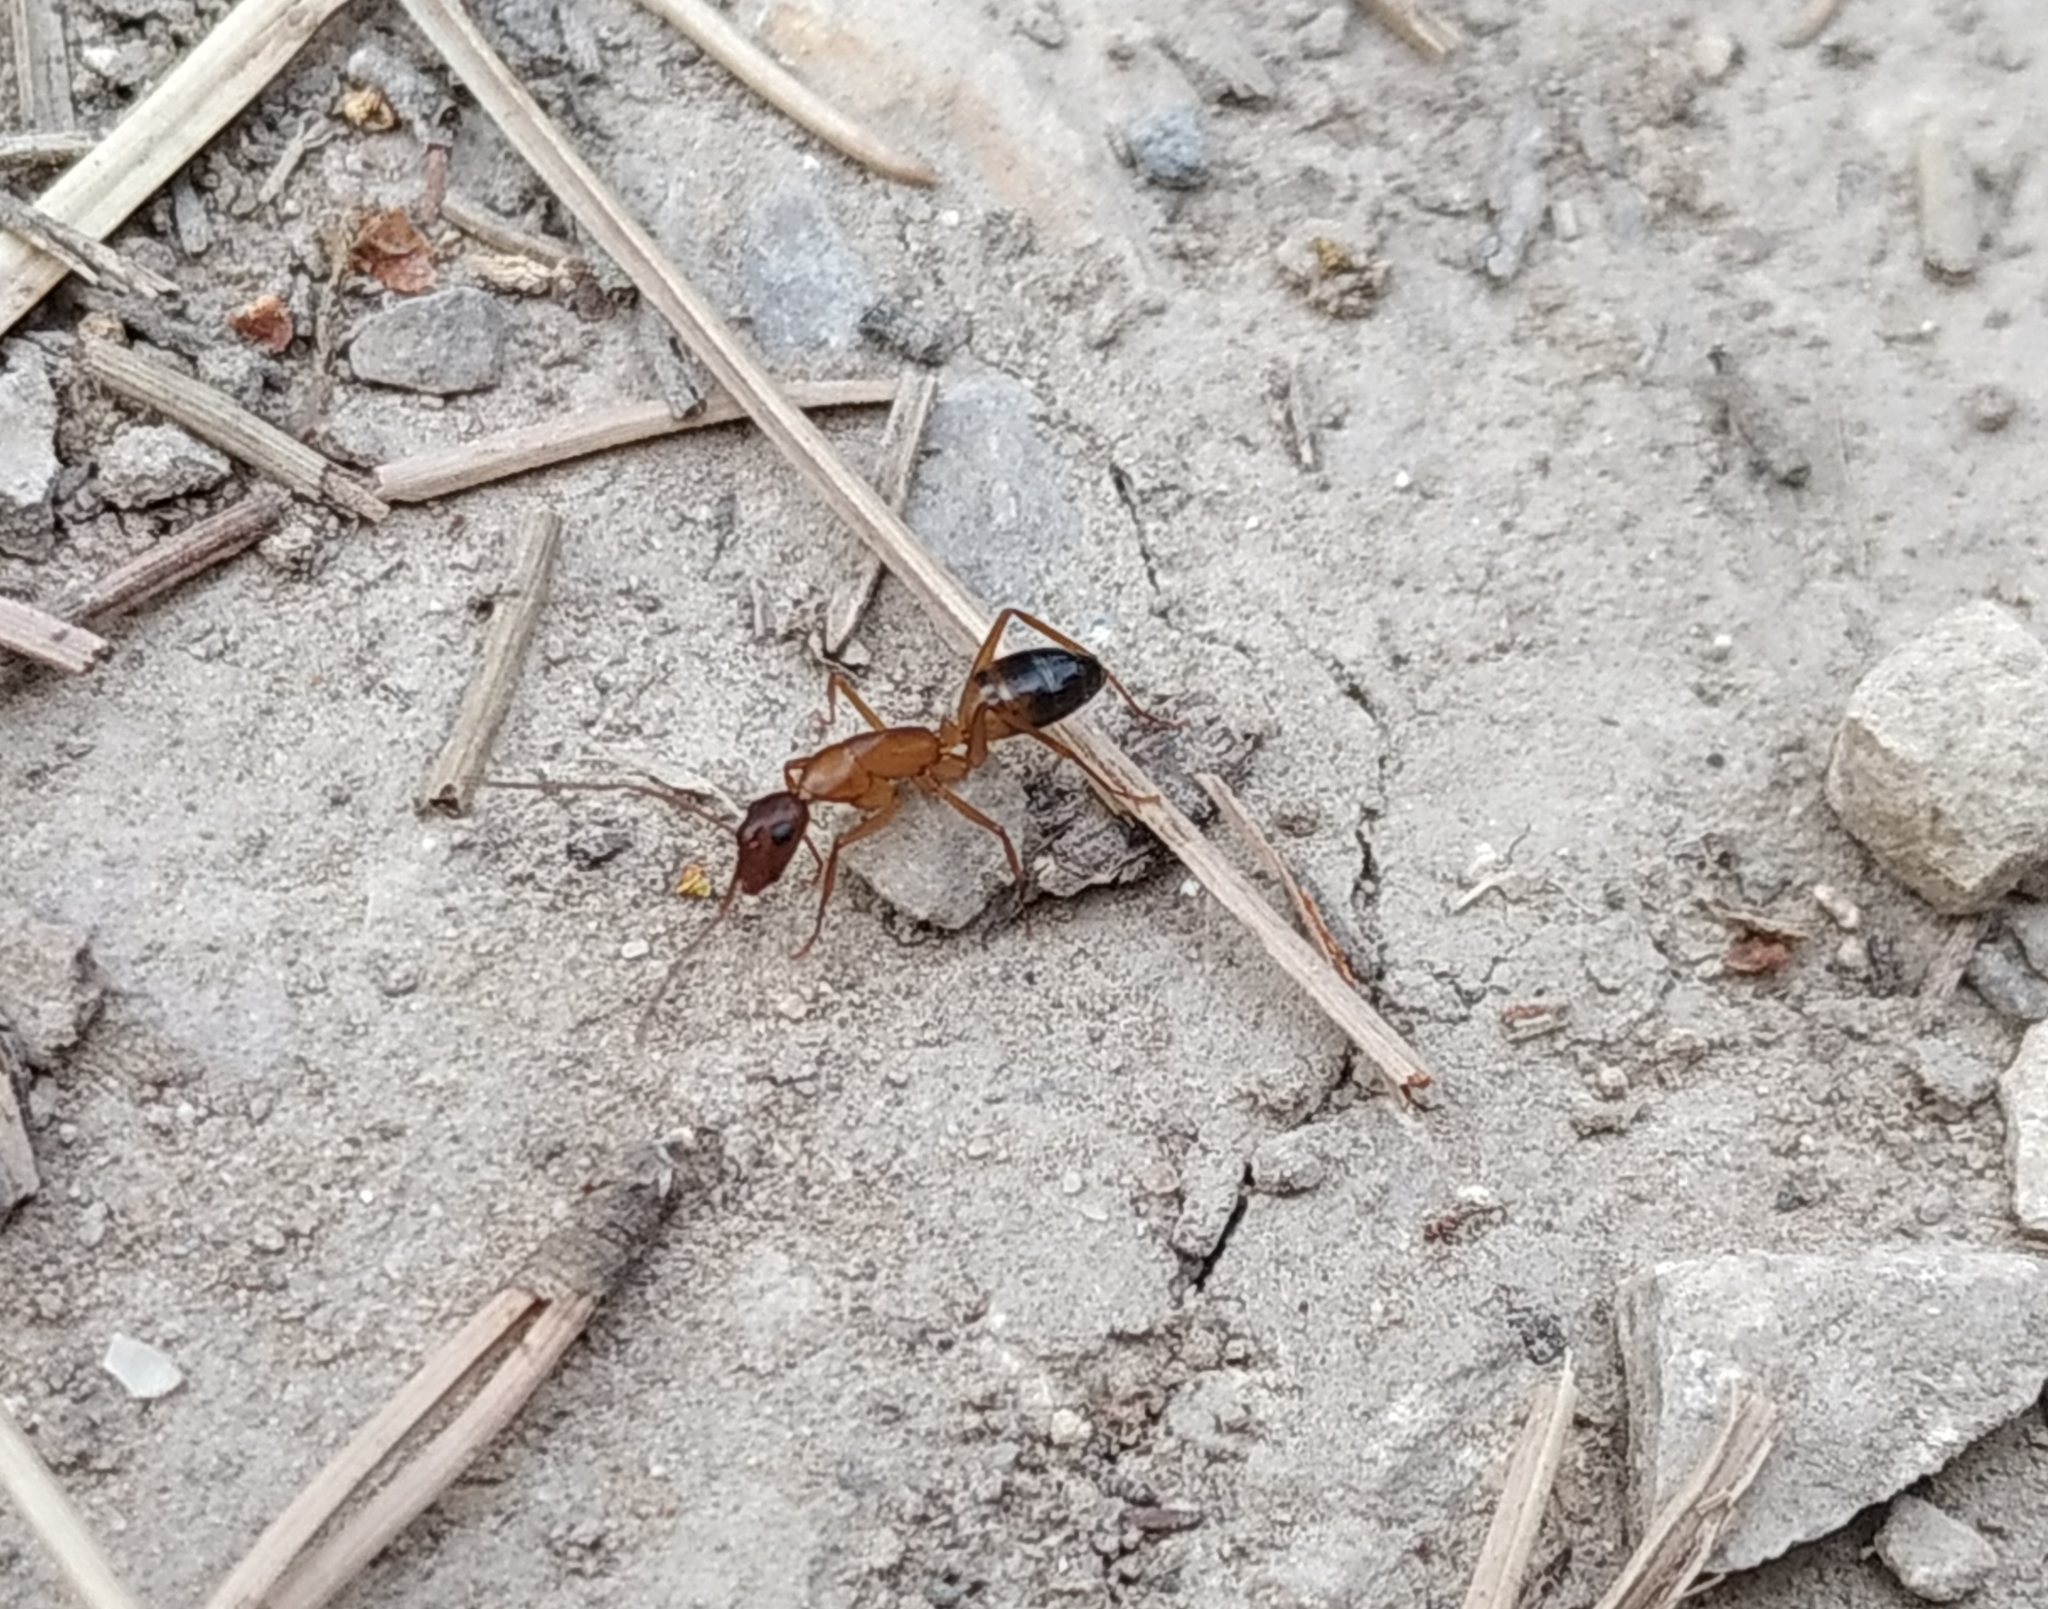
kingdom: Animalia
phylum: Arthropoda
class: Insecta
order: Hymenoptera
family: Formicidae
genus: Camponotus
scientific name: Camponotus pilicornis
